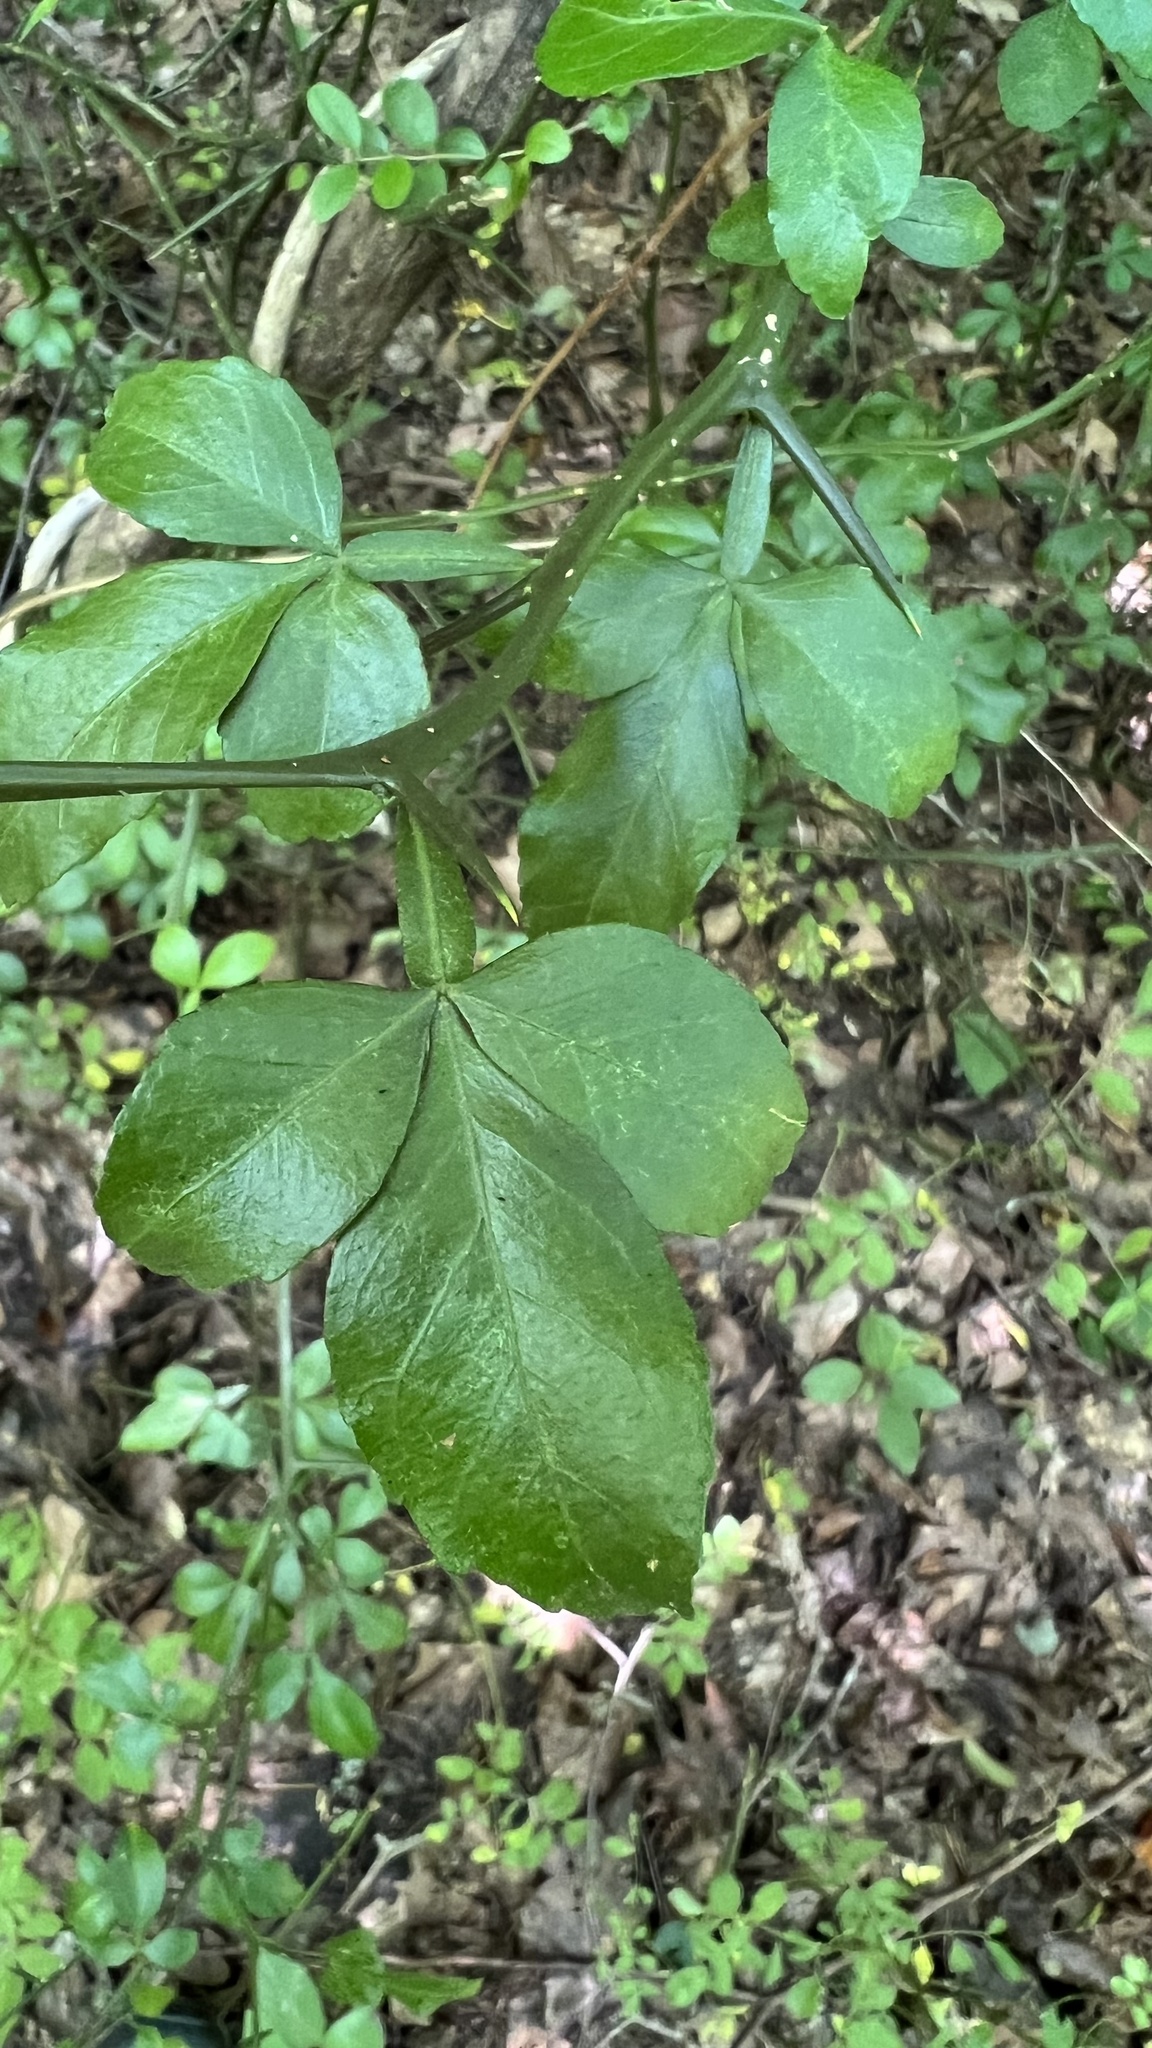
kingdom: Plantae
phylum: Tracheophyta
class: Magnoliopsida
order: Sapindales
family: Rutaceae
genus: Citrus
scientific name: Citrus trifoliata
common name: Japanese bitter-orange
